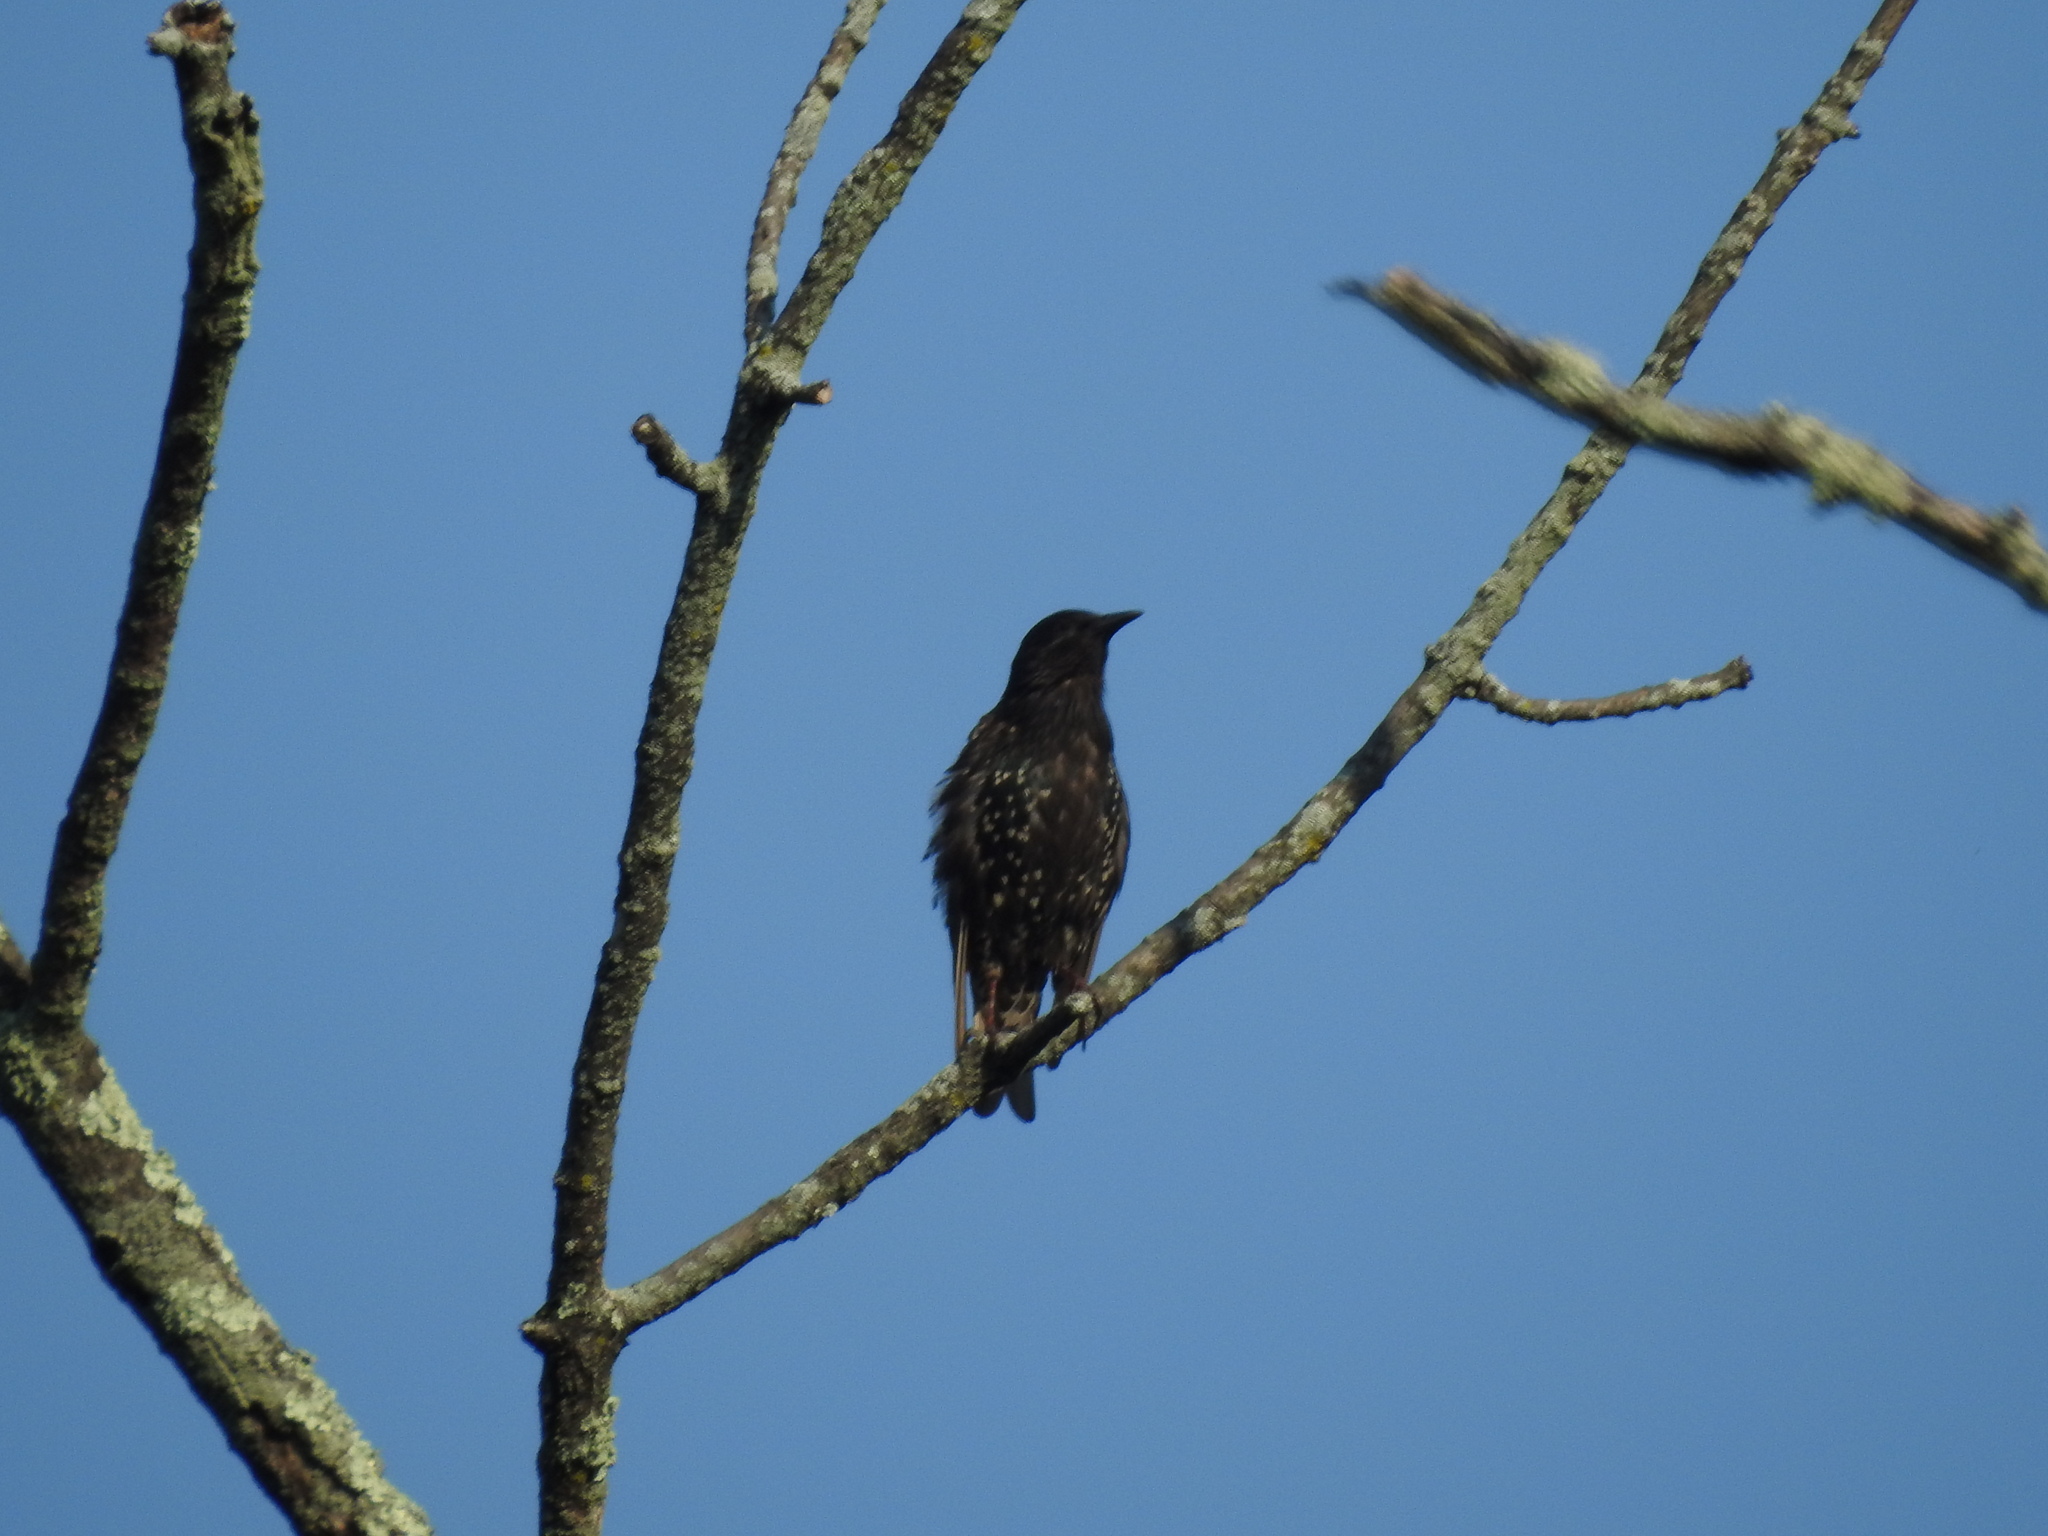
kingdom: Animalia
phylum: Chordata
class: Aves
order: Passeriformes
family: Sturnidae
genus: Sturnus
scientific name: Sturnus vulgaris
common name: Common starling
